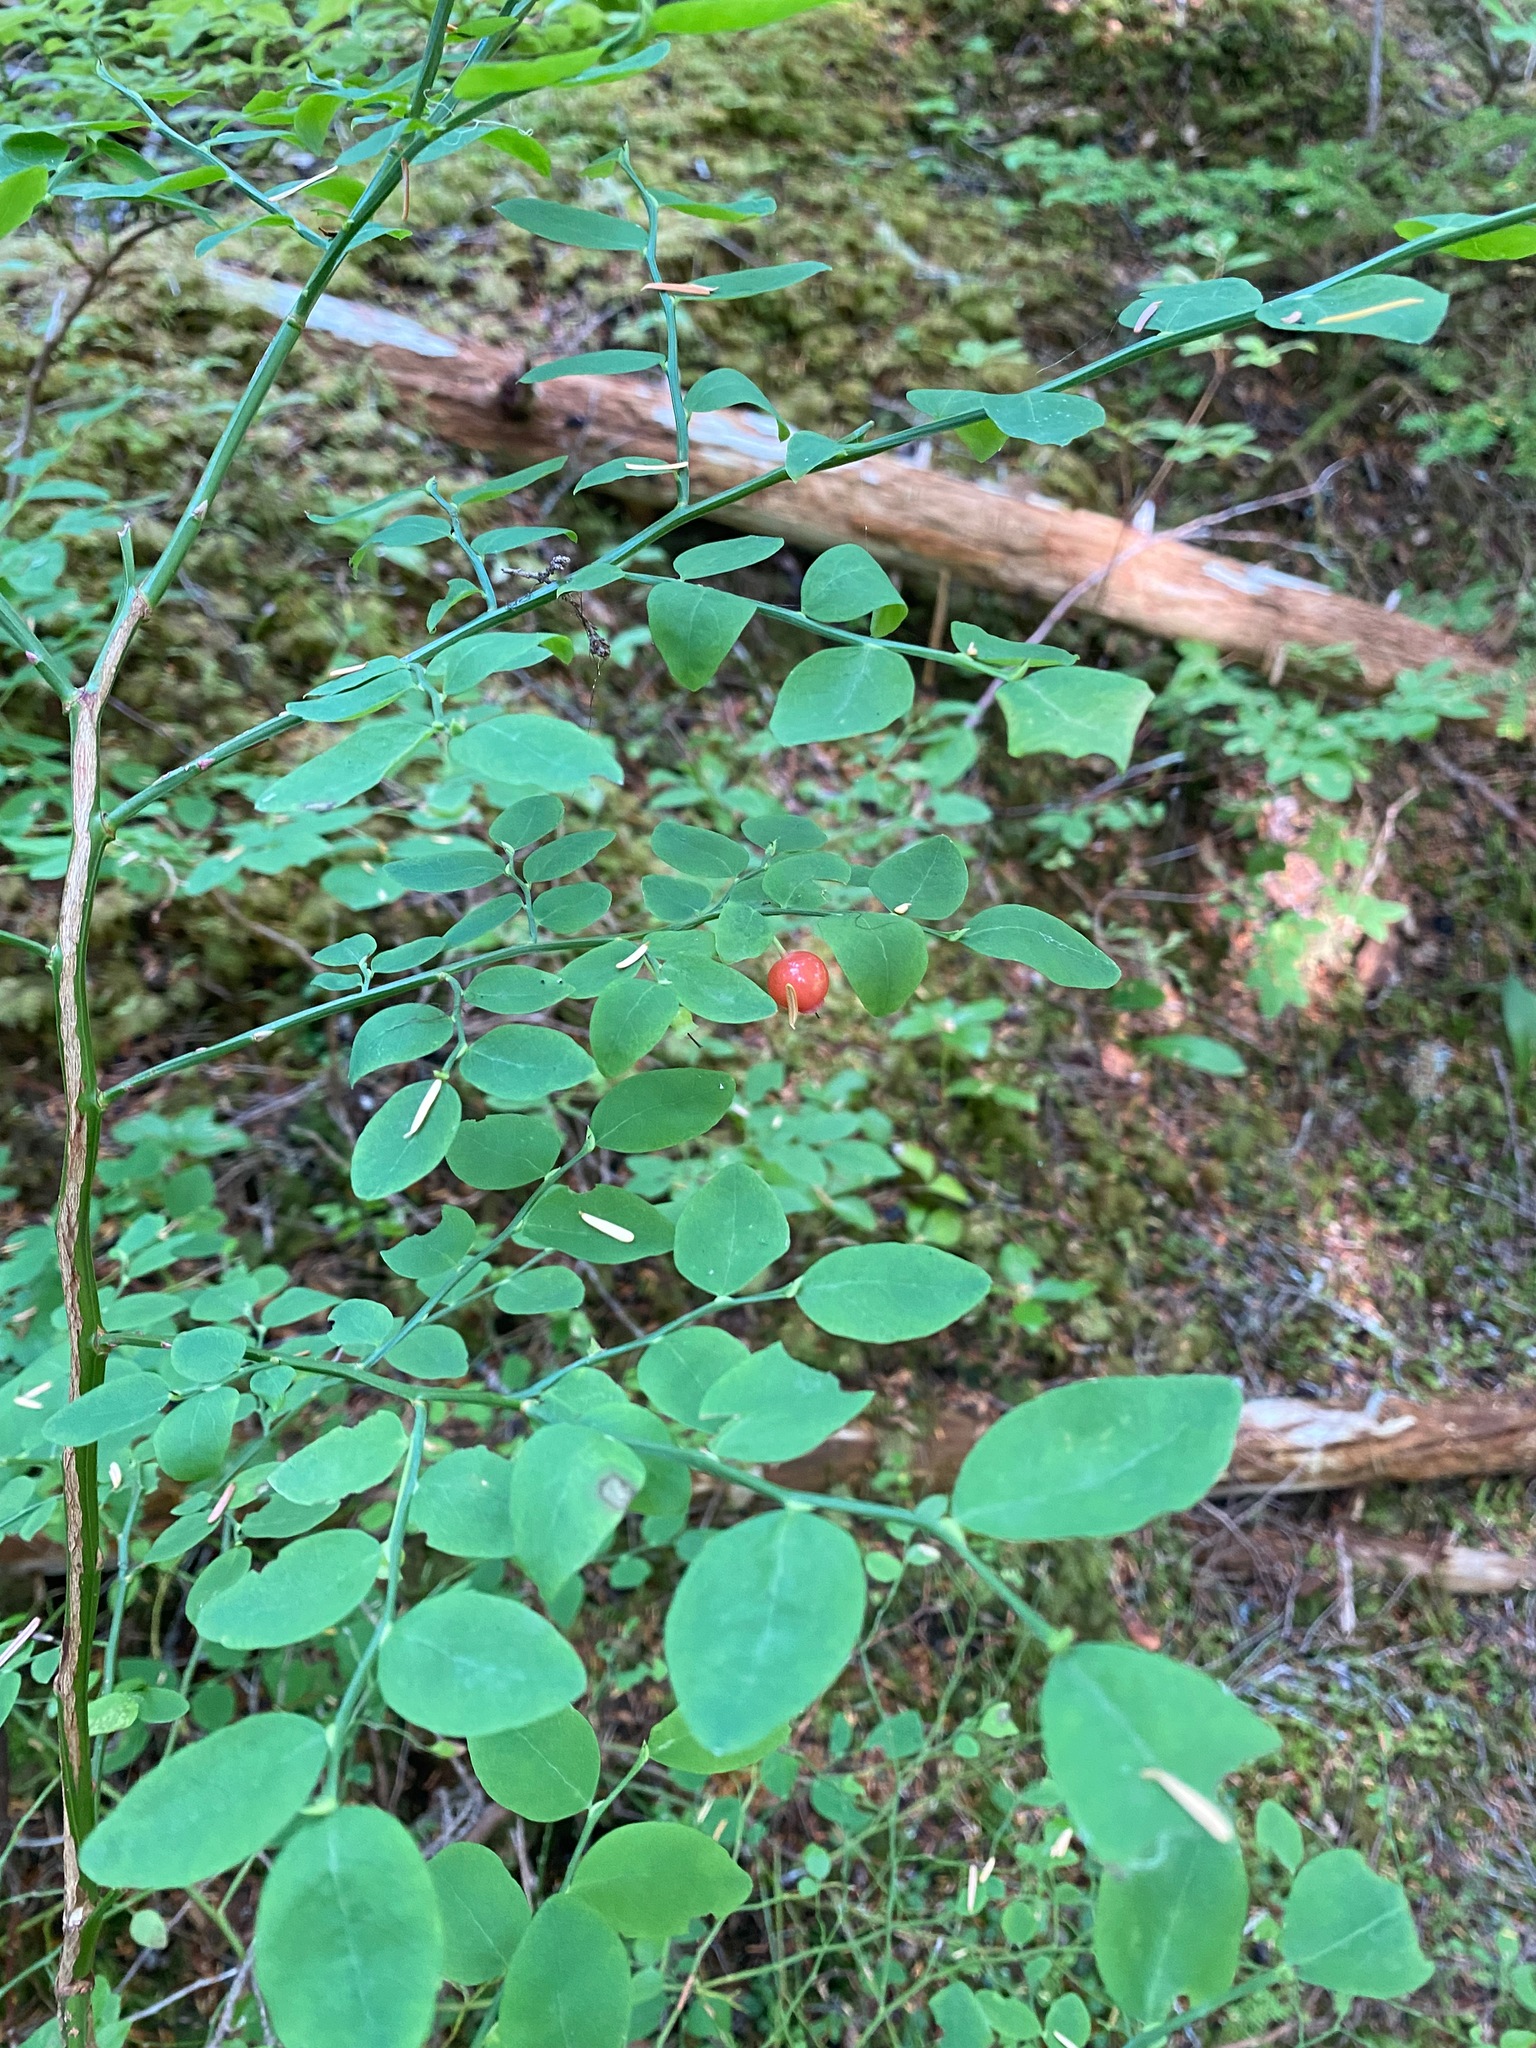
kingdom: Plantae
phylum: Tracheophyta
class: Magnoliopsida
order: Ericales
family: Ericaceae
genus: Vaccinium
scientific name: Vaccinium parvifolium
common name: Red-huckleberry
